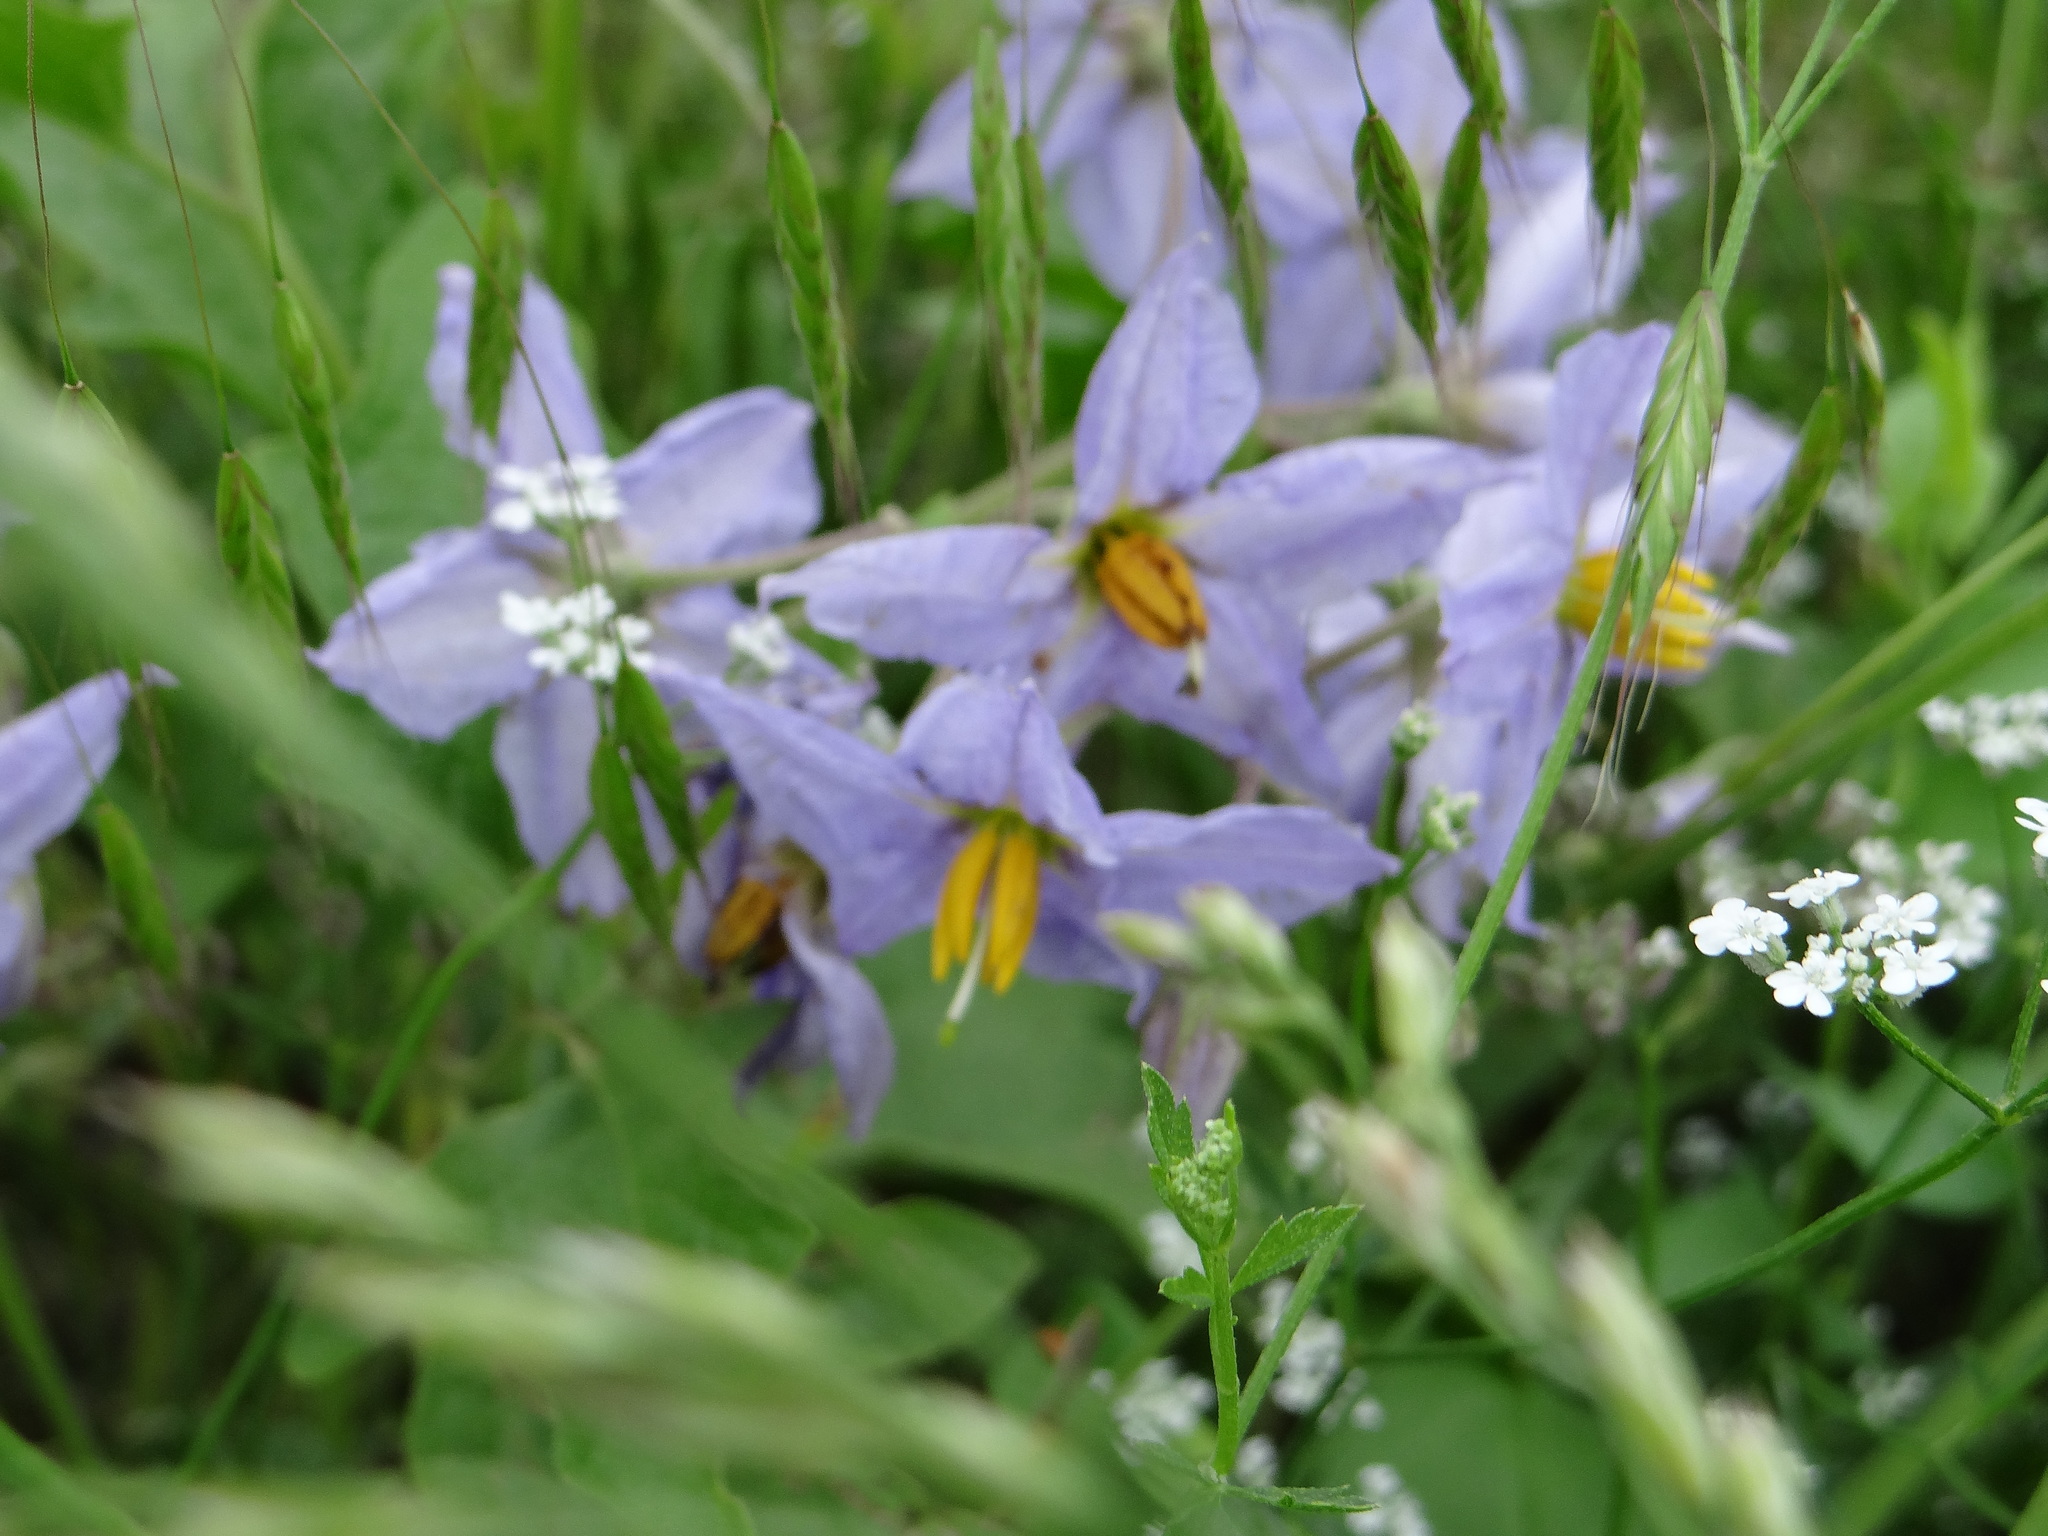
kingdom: Plantae
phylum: Tracheophyta
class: Magnoliopsida
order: Solanales
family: Solanaceae
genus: Solanum
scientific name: Solanum dimidiatum
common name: Carolina horse-nettle
